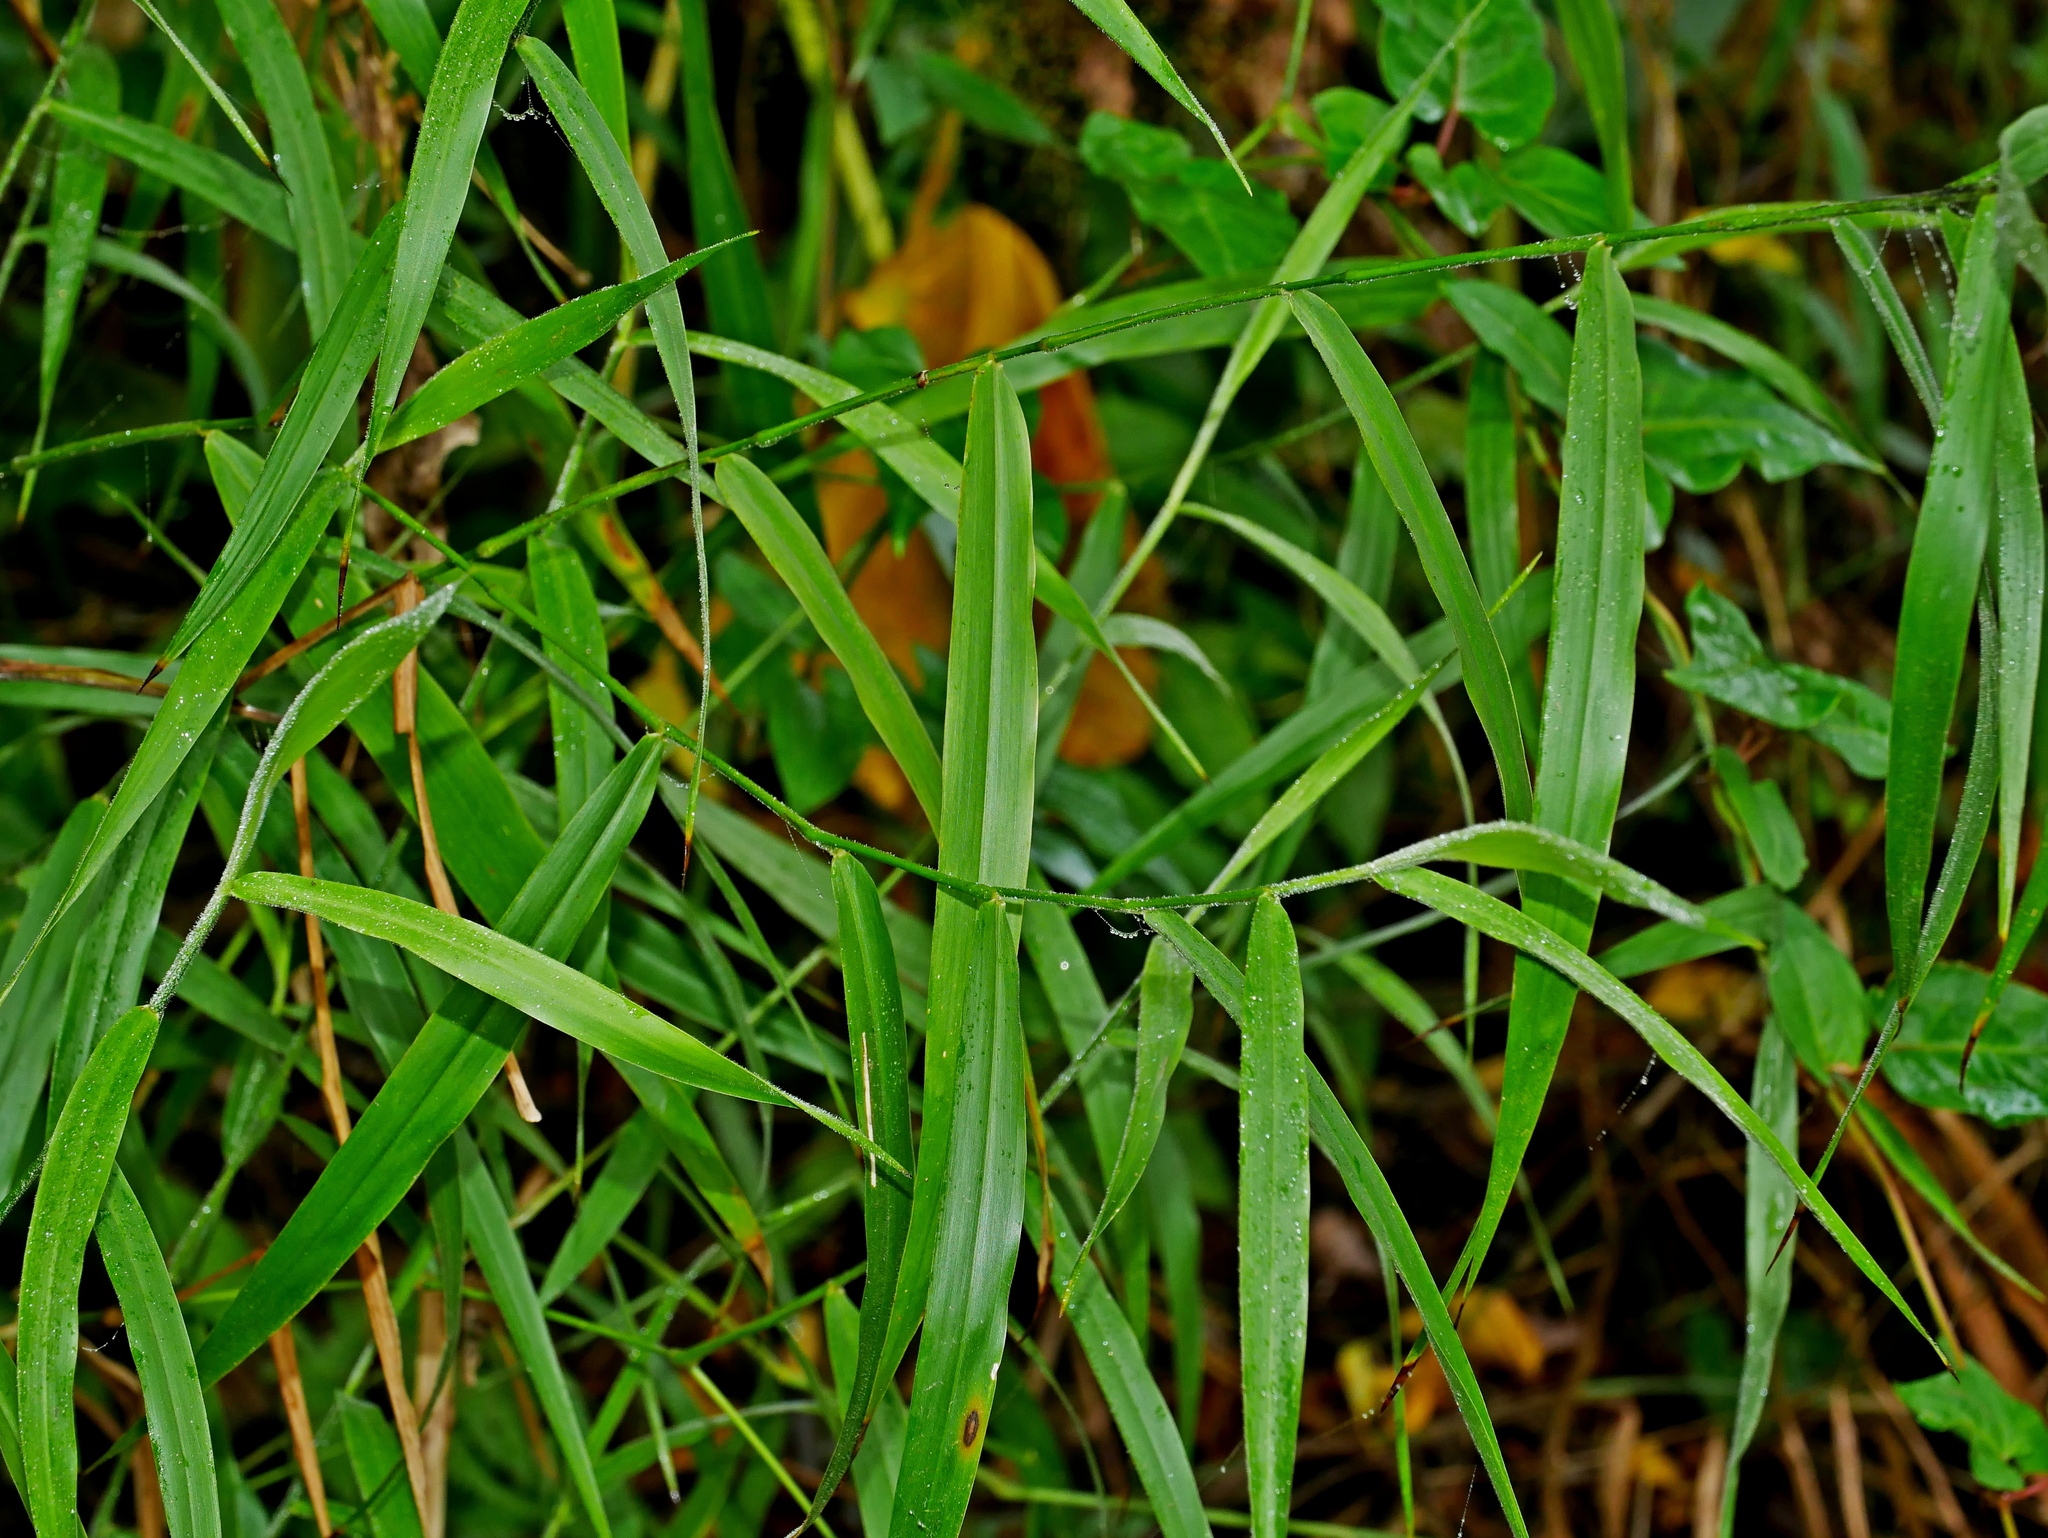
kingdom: Plantae
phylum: Tracheophyta
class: Liliopsida
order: Poales
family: Poaceae
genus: Panicum
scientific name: Panicum sarmentosum
